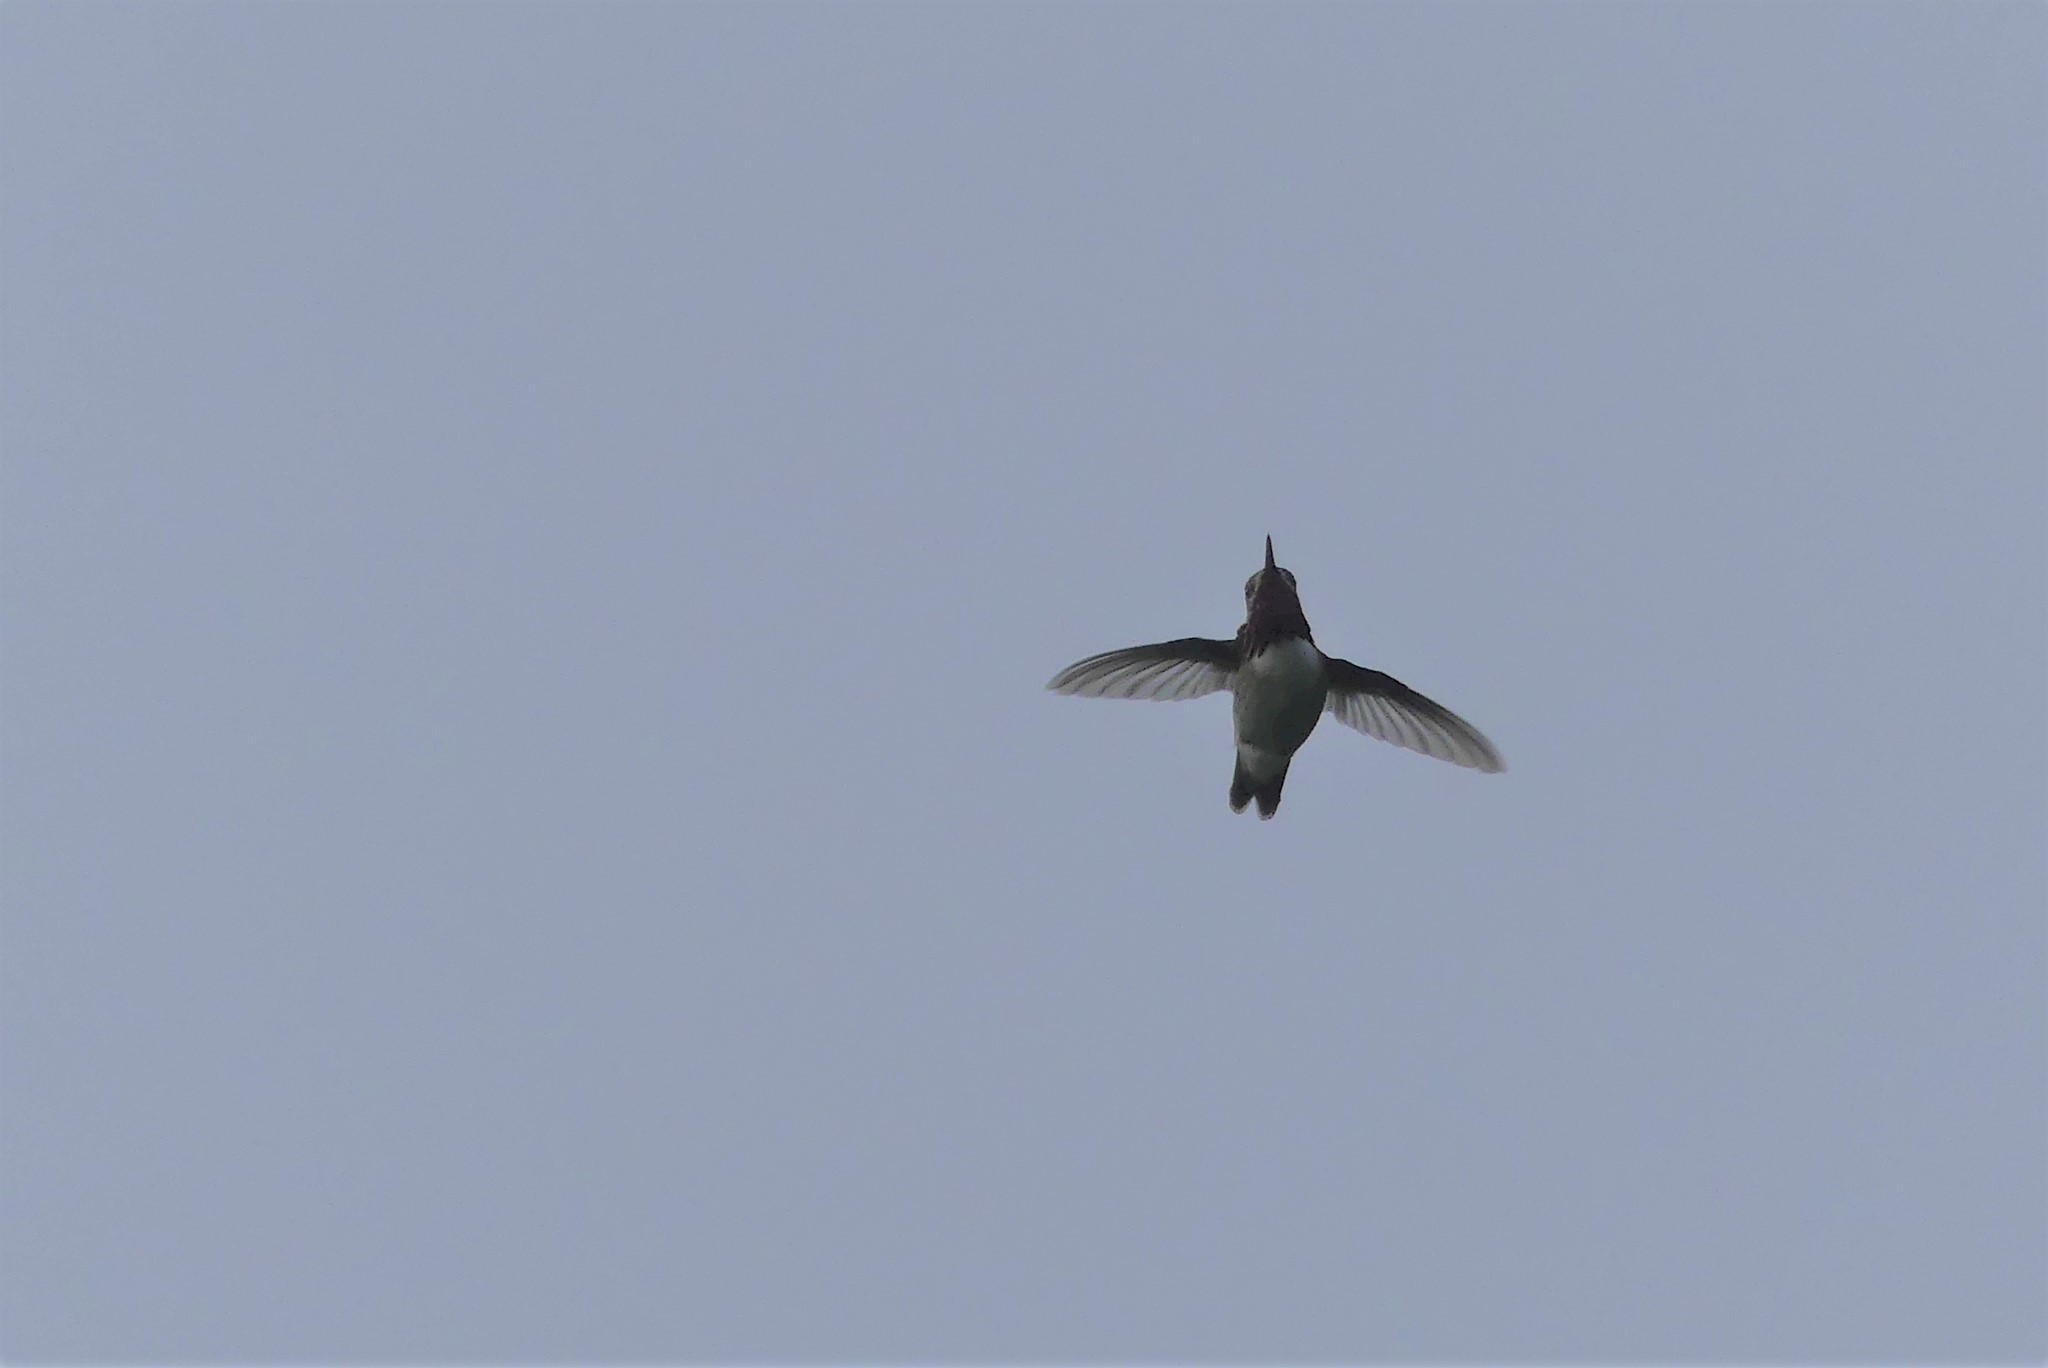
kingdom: Animalia
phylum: Chordata
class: Aves
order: Apodiformes
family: Trochilidae
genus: Selasphorus
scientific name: Selasphorus calliope
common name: Calliope hummingbird
